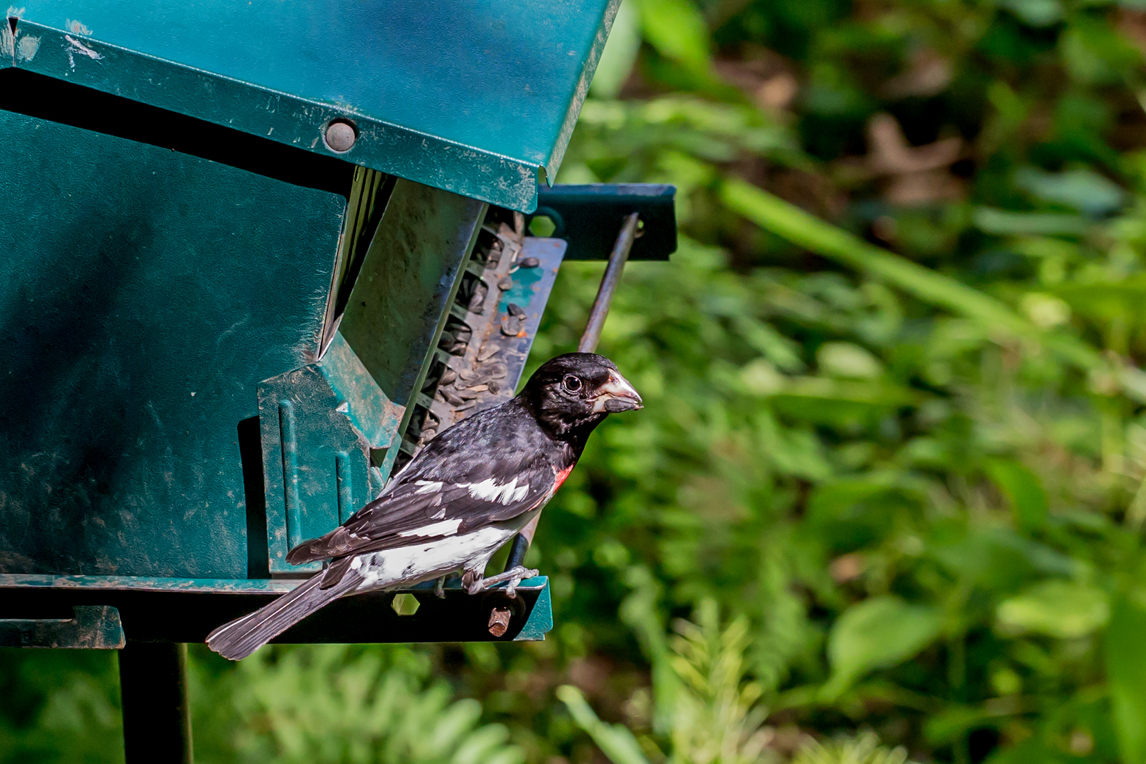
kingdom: Animalia
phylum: Chordata
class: Aves
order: Passeriformes
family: Cardinalidae
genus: Pheucticus
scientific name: Pheucticus ludovicianus
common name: Rose-breasted grosbeak
